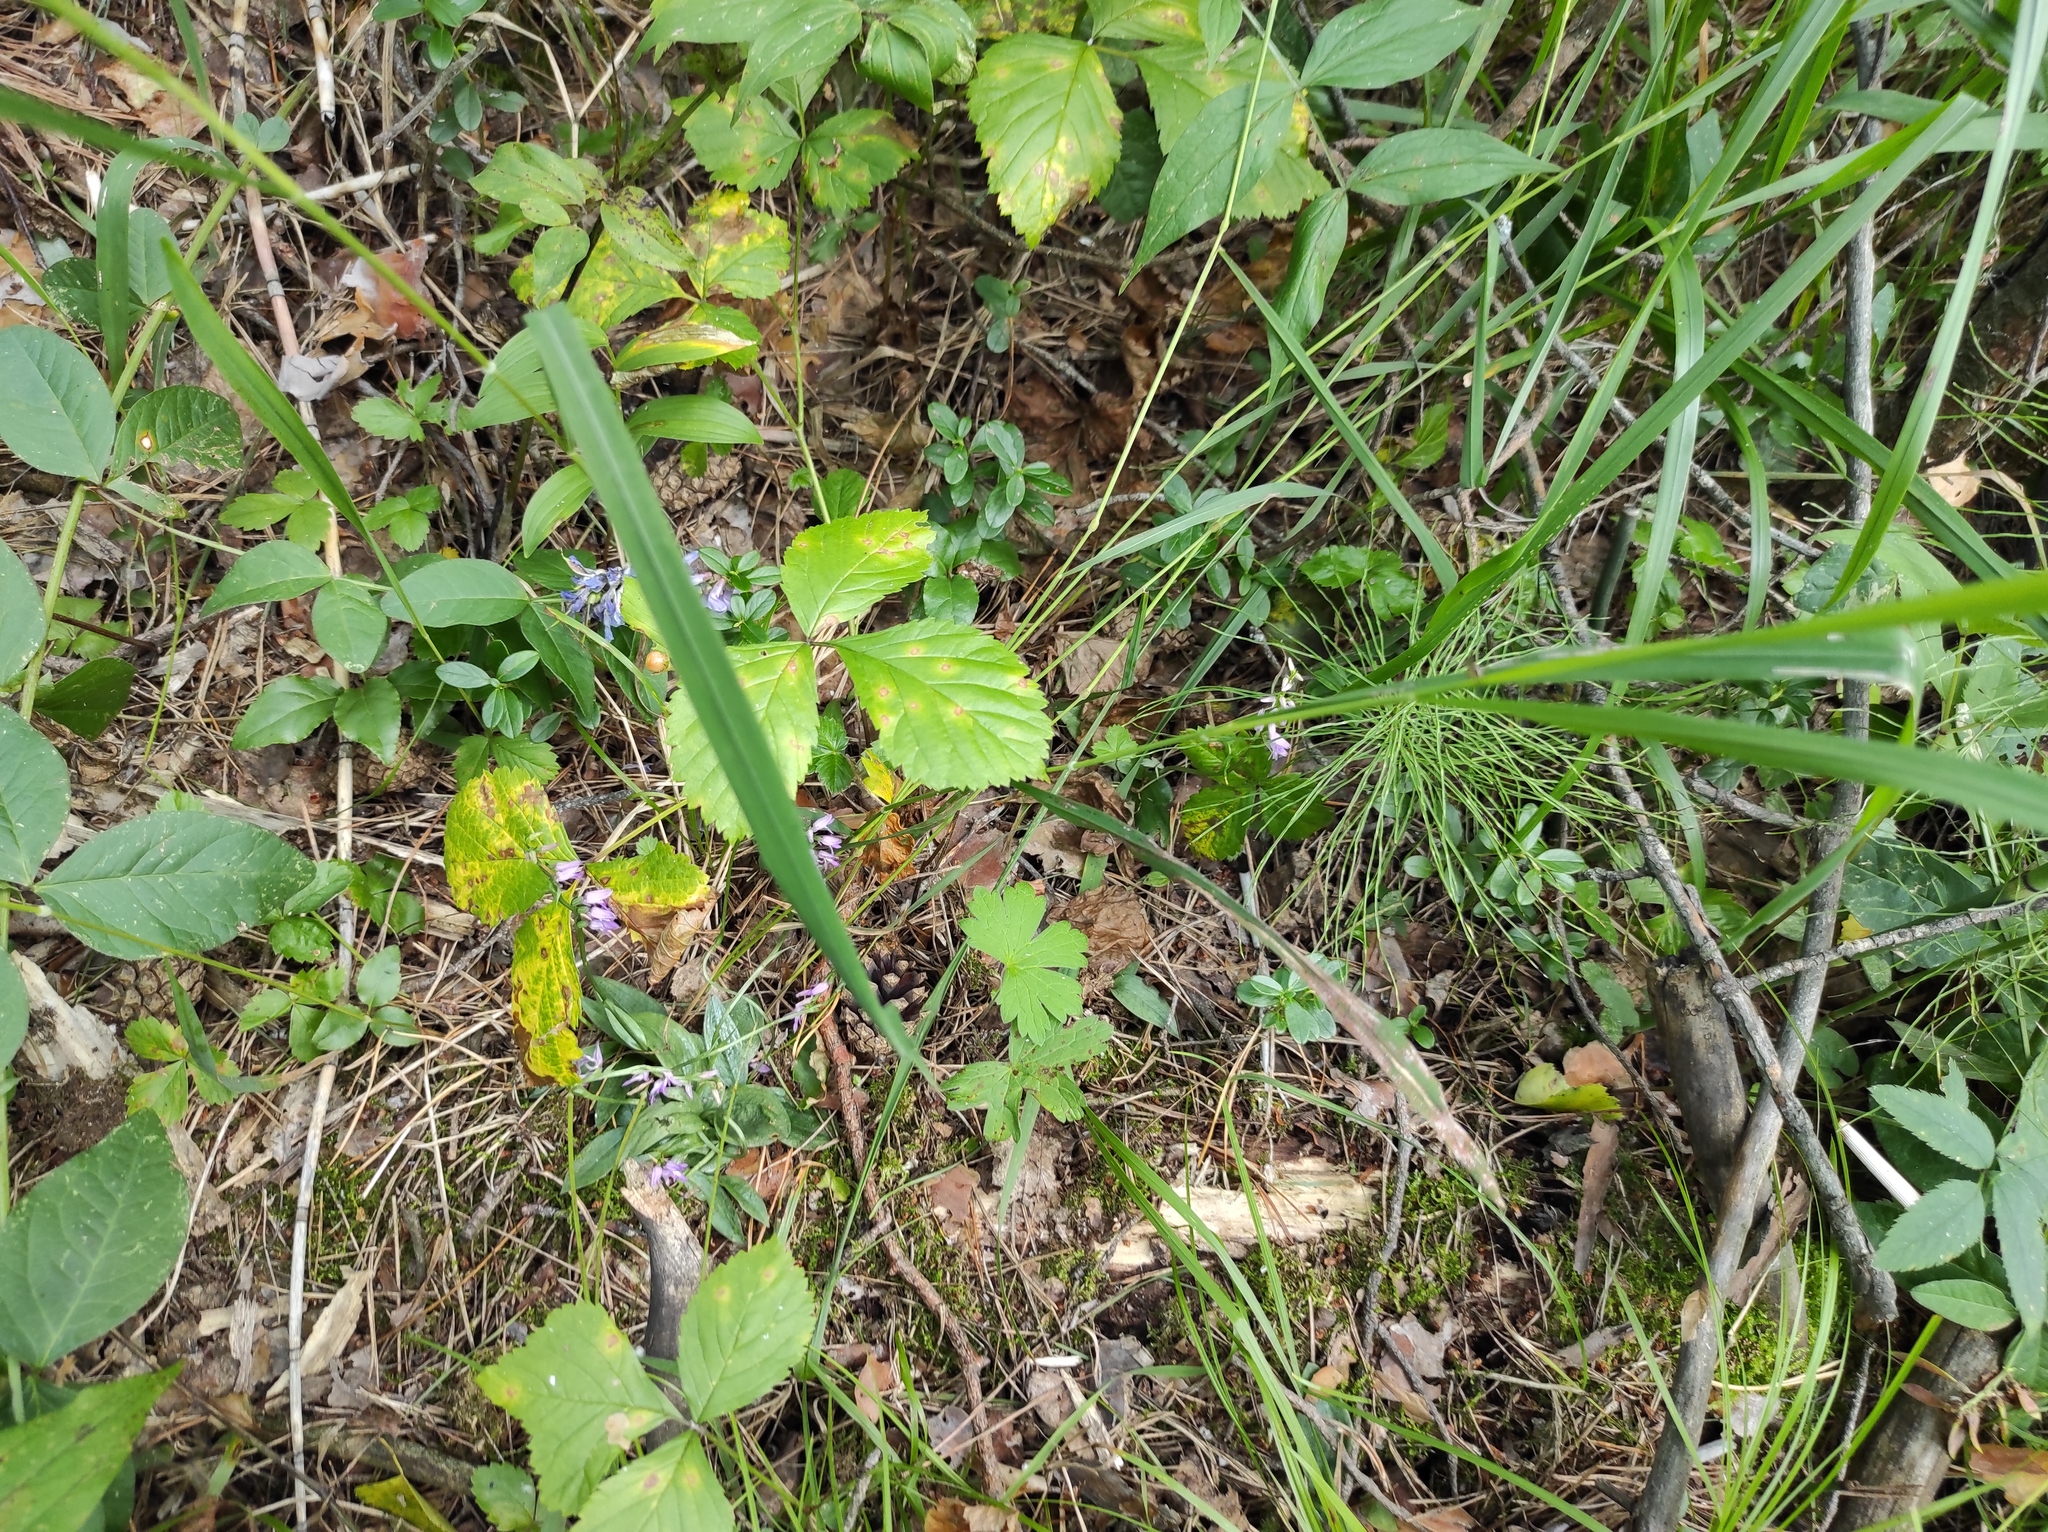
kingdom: Plantae
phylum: Tracheophyta
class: Liliopsida
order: Asparagales
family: Orchidaceae
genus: Hemipilia
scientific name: Hemipilia cucullata
